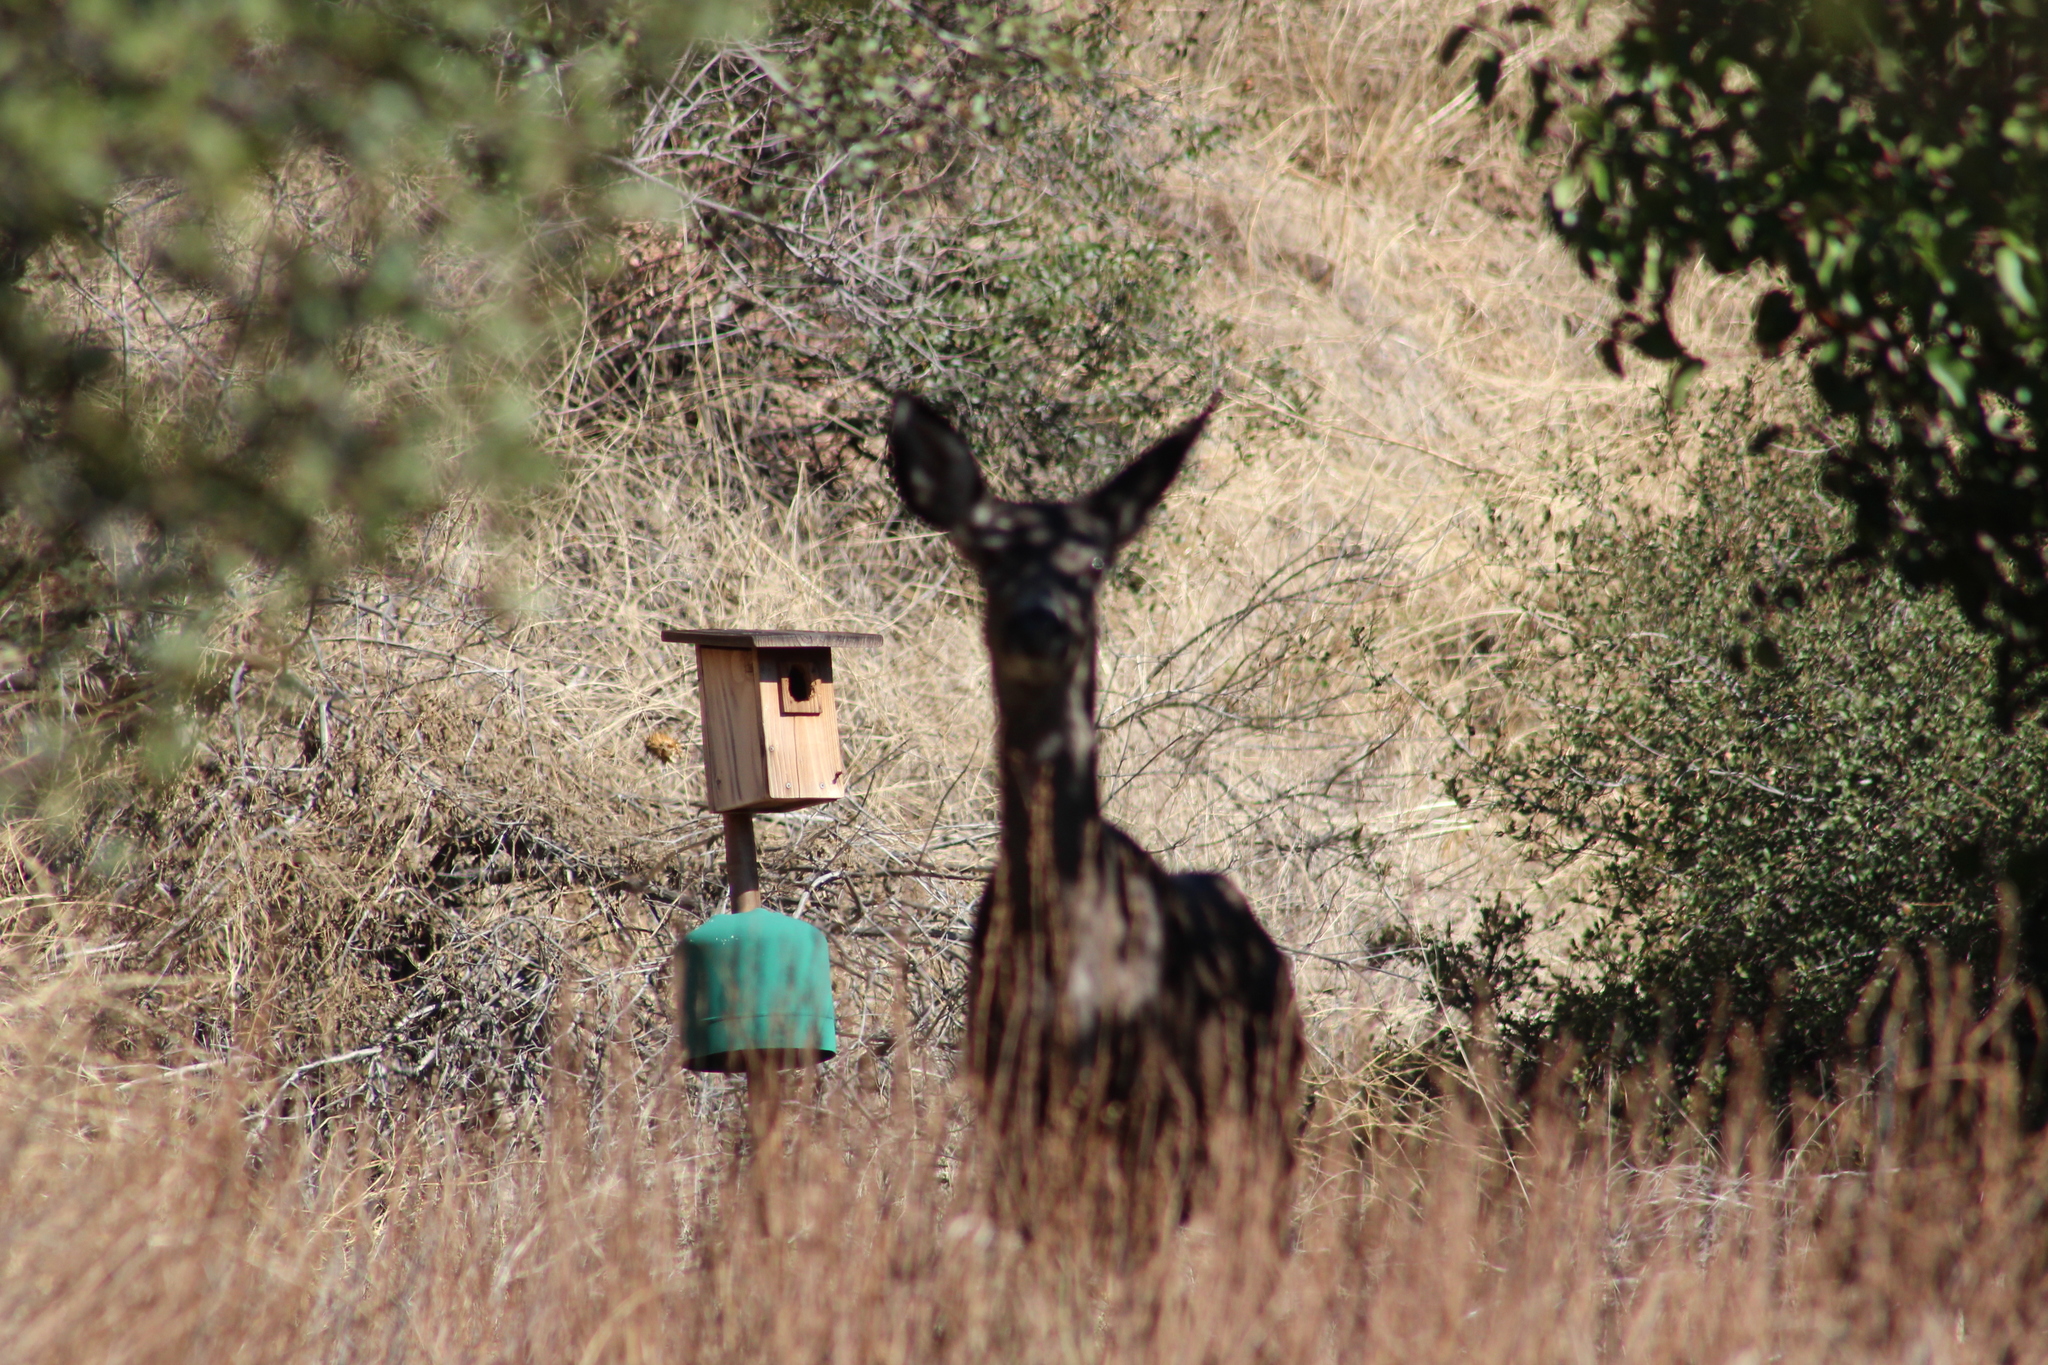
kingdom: Animalia
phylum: Chordata
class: Mammalia
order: Artiodactyla
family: Cervidae
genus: Odocoileus
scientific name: Odocoileus hemionus
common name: Mule deer
